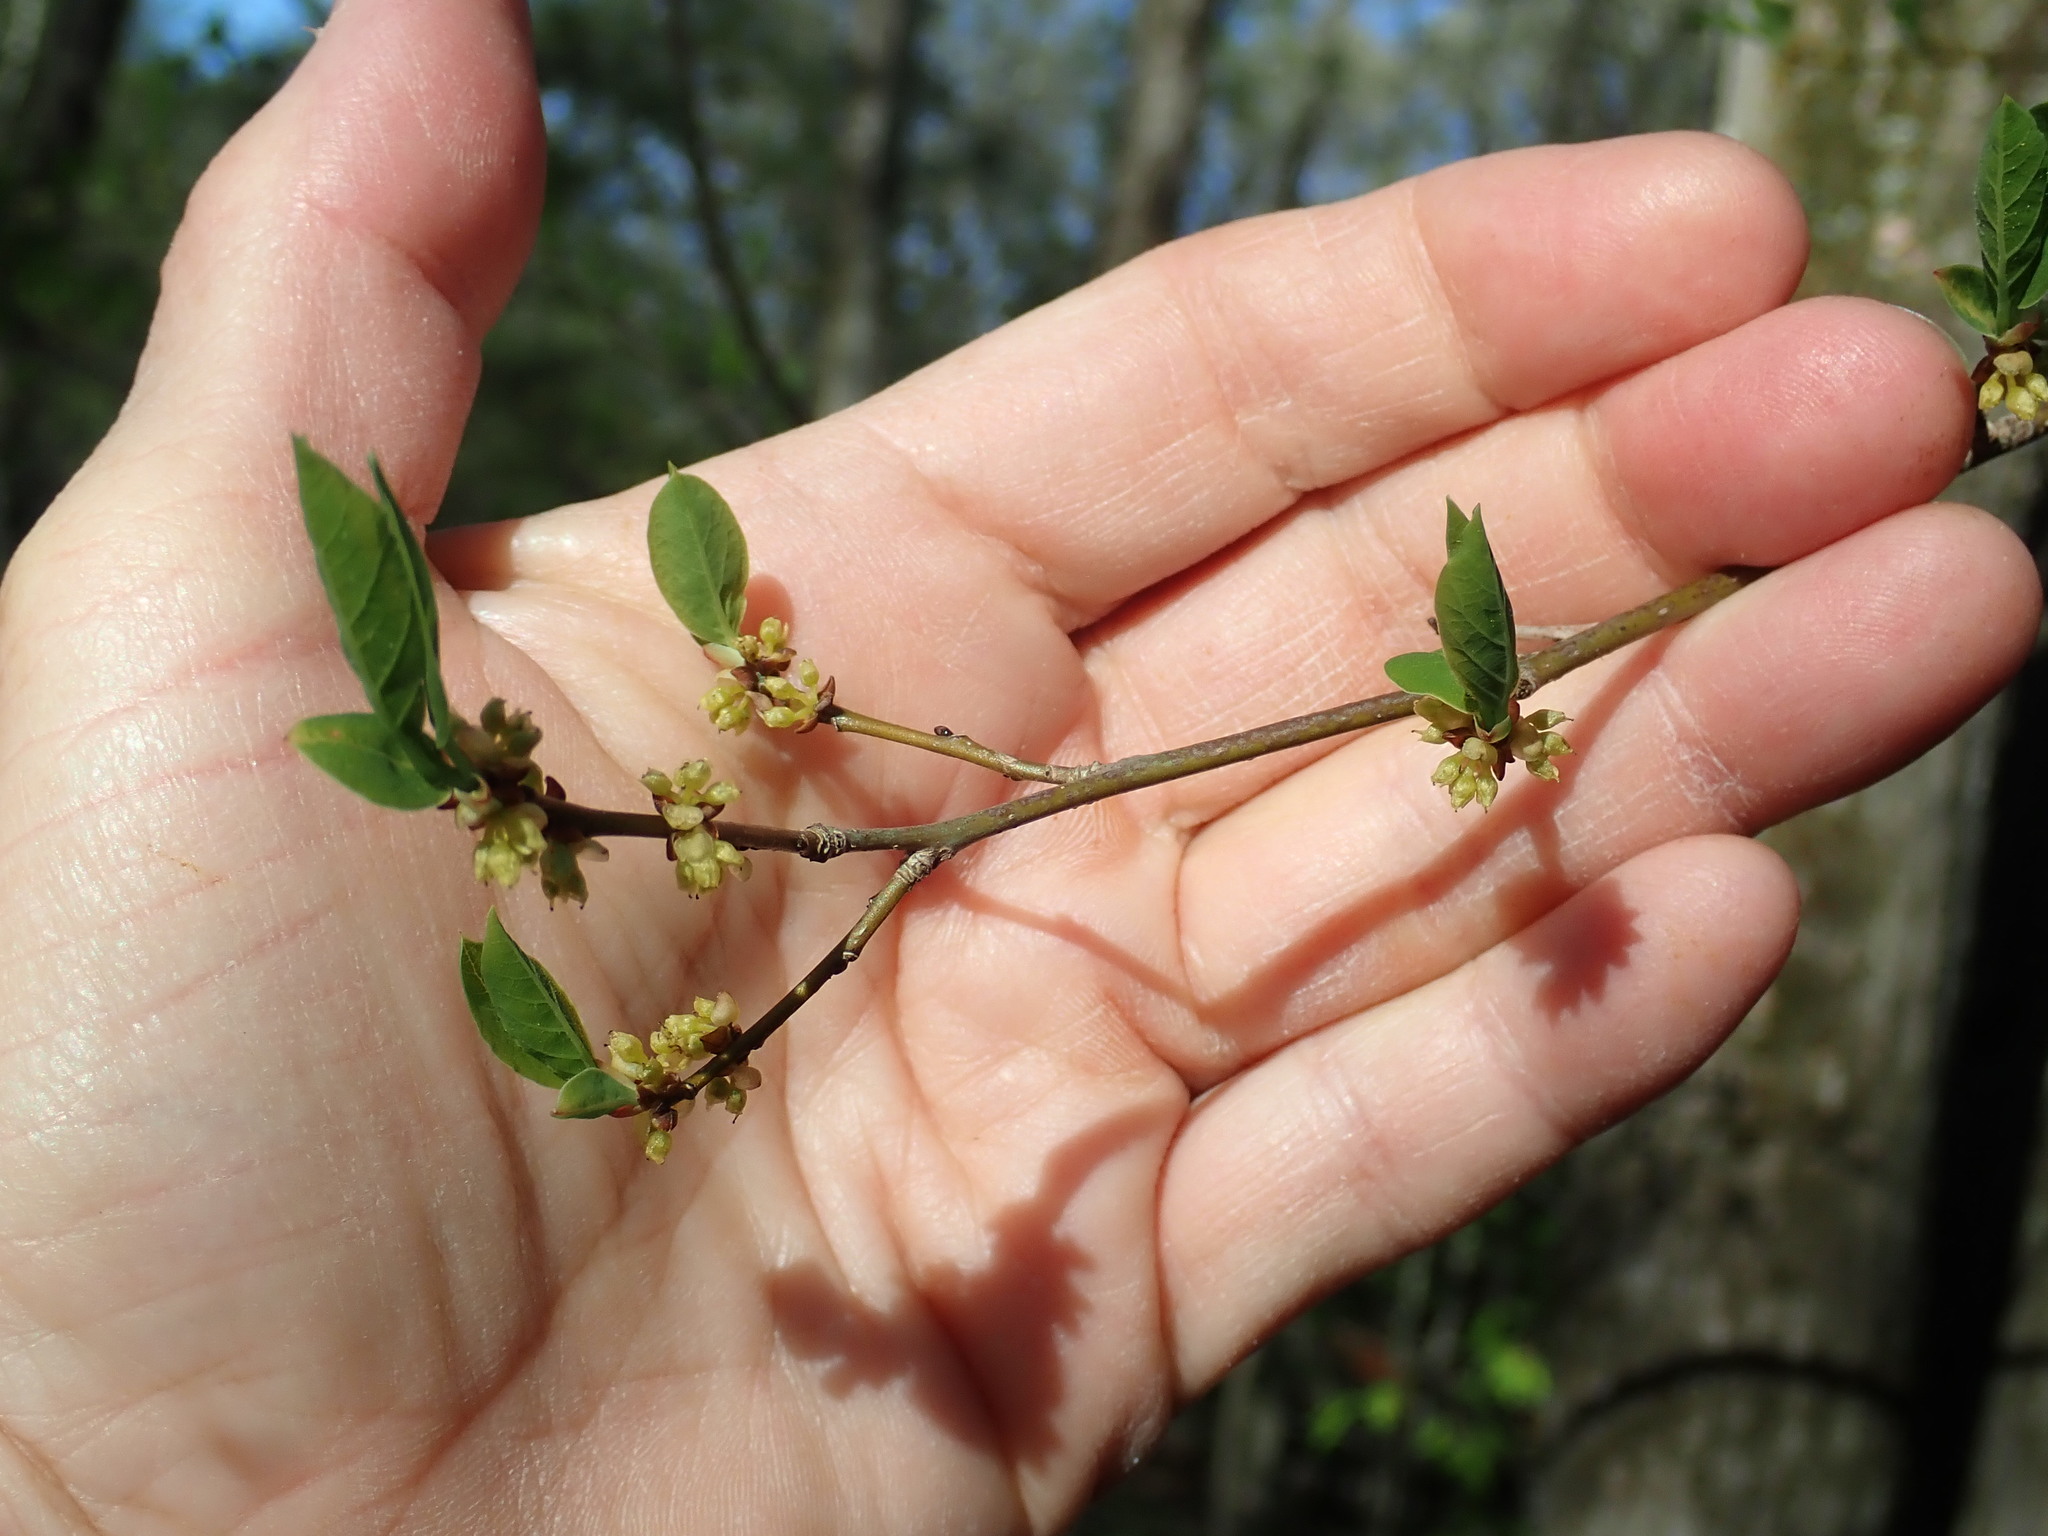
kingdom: Plantae
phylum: Tracheophyta
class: Magnoliopsida
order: Laurales
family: Lauraceae
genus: Lindera
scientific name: Lindera benzoin
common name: Spicebush
